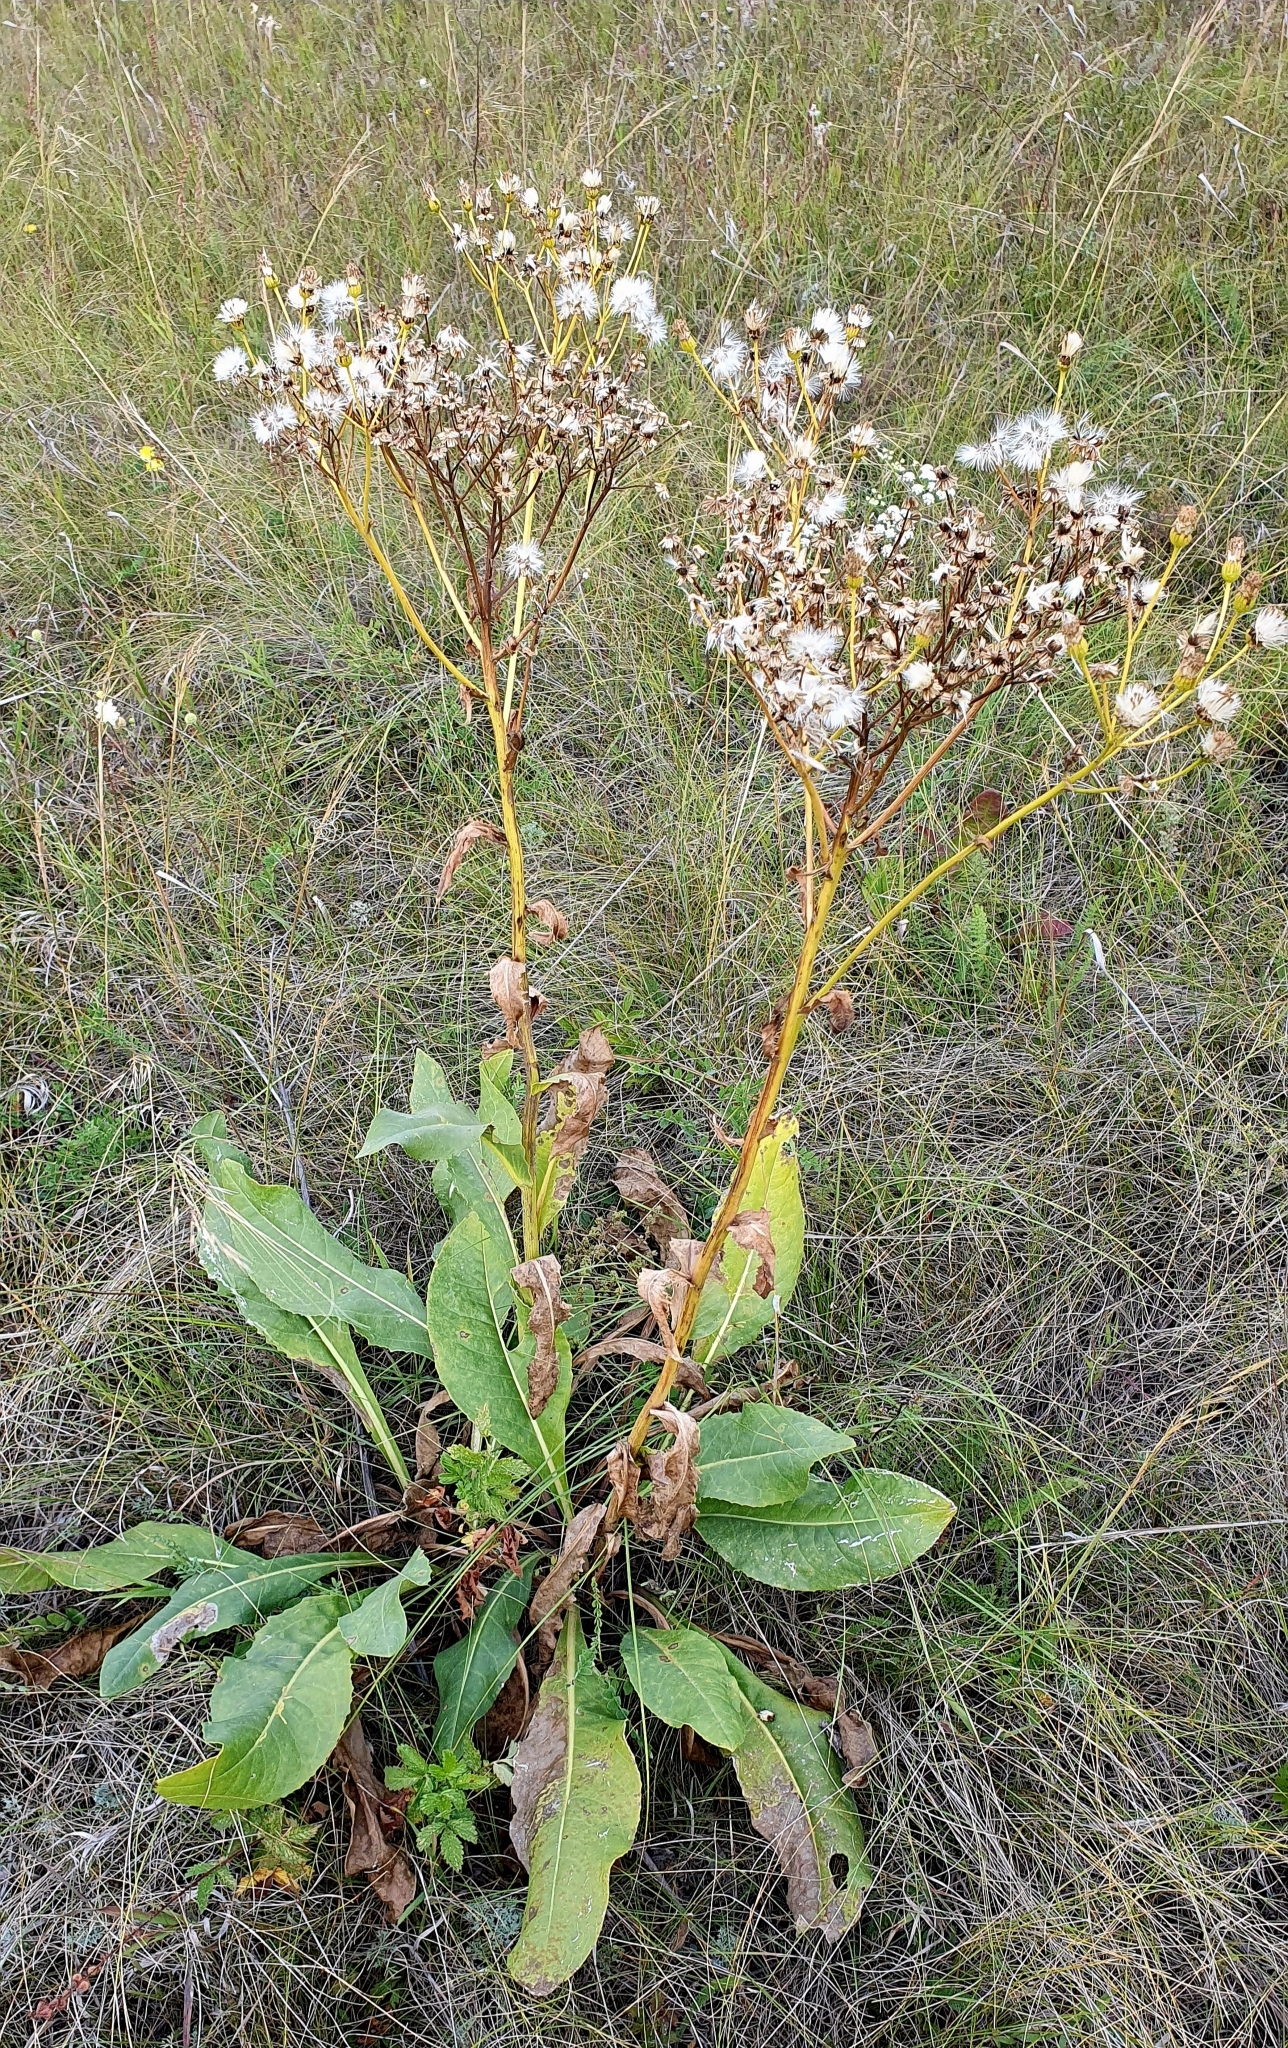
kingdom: Plantae
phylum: Tracheophyta
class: Magnoliopsida
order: Asterales
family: Asteraceae
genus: Senecio
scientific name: Senecio doria
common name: Golden ragwort
